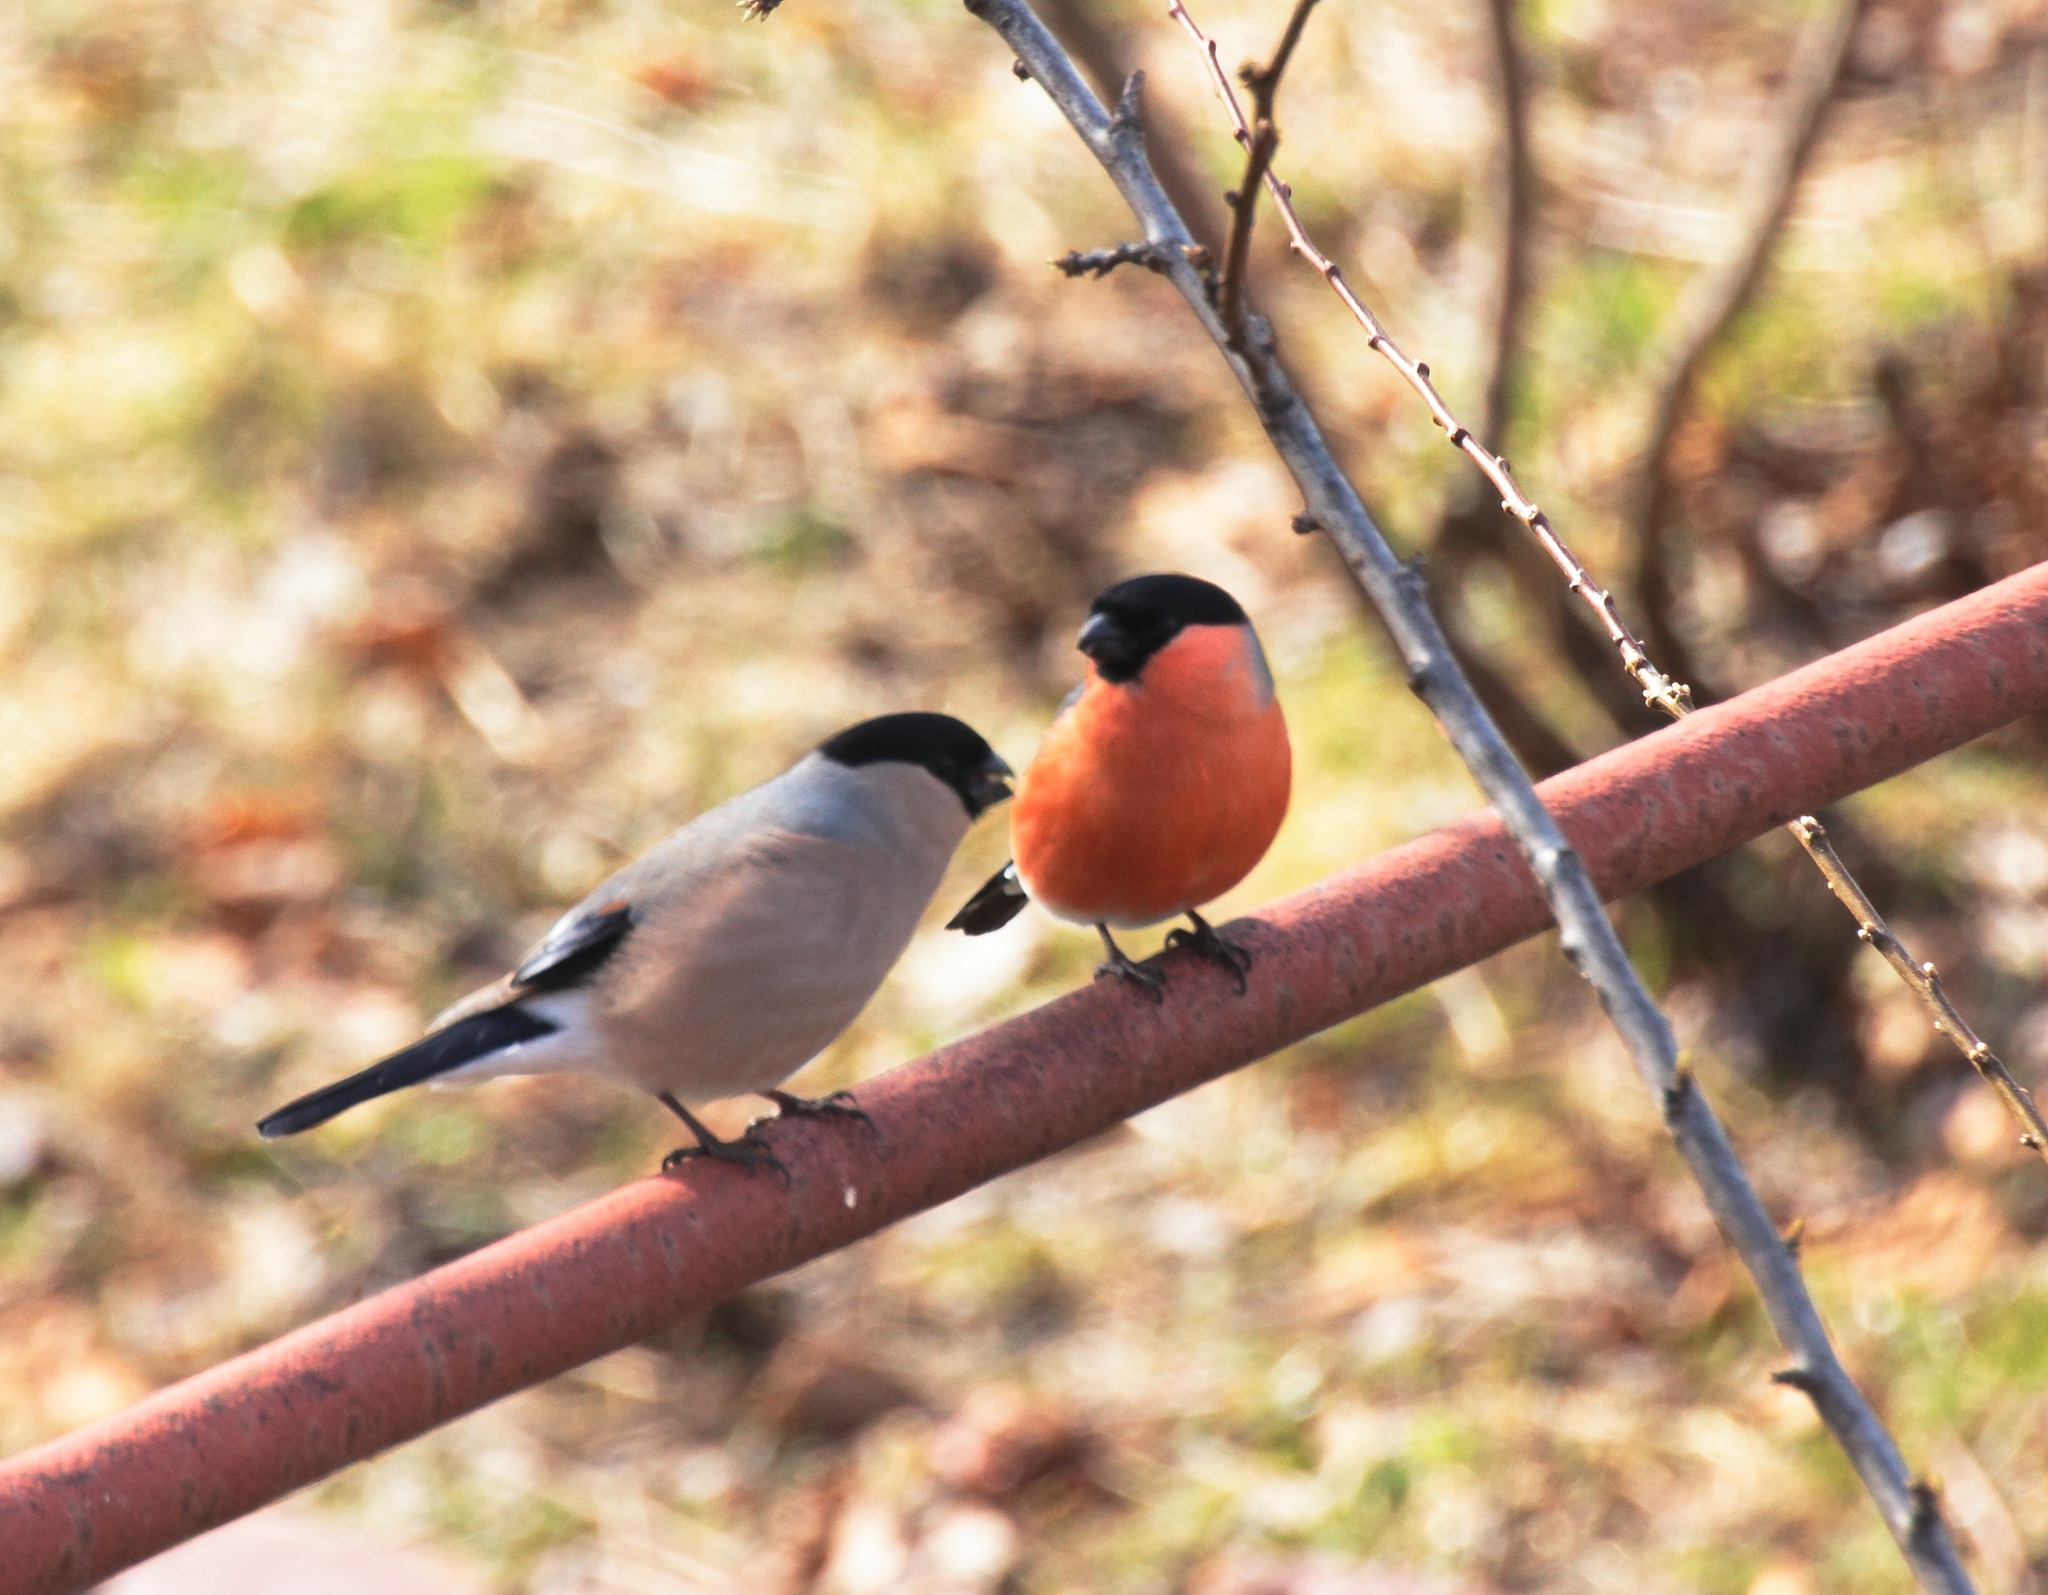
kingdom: Animalia
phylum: Chordata
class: Aves
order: Passeriformes
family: Fringillidae
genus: Pyrrhula
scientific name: Pyrrhula pyrrhula
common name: Eurasian bullfinch
